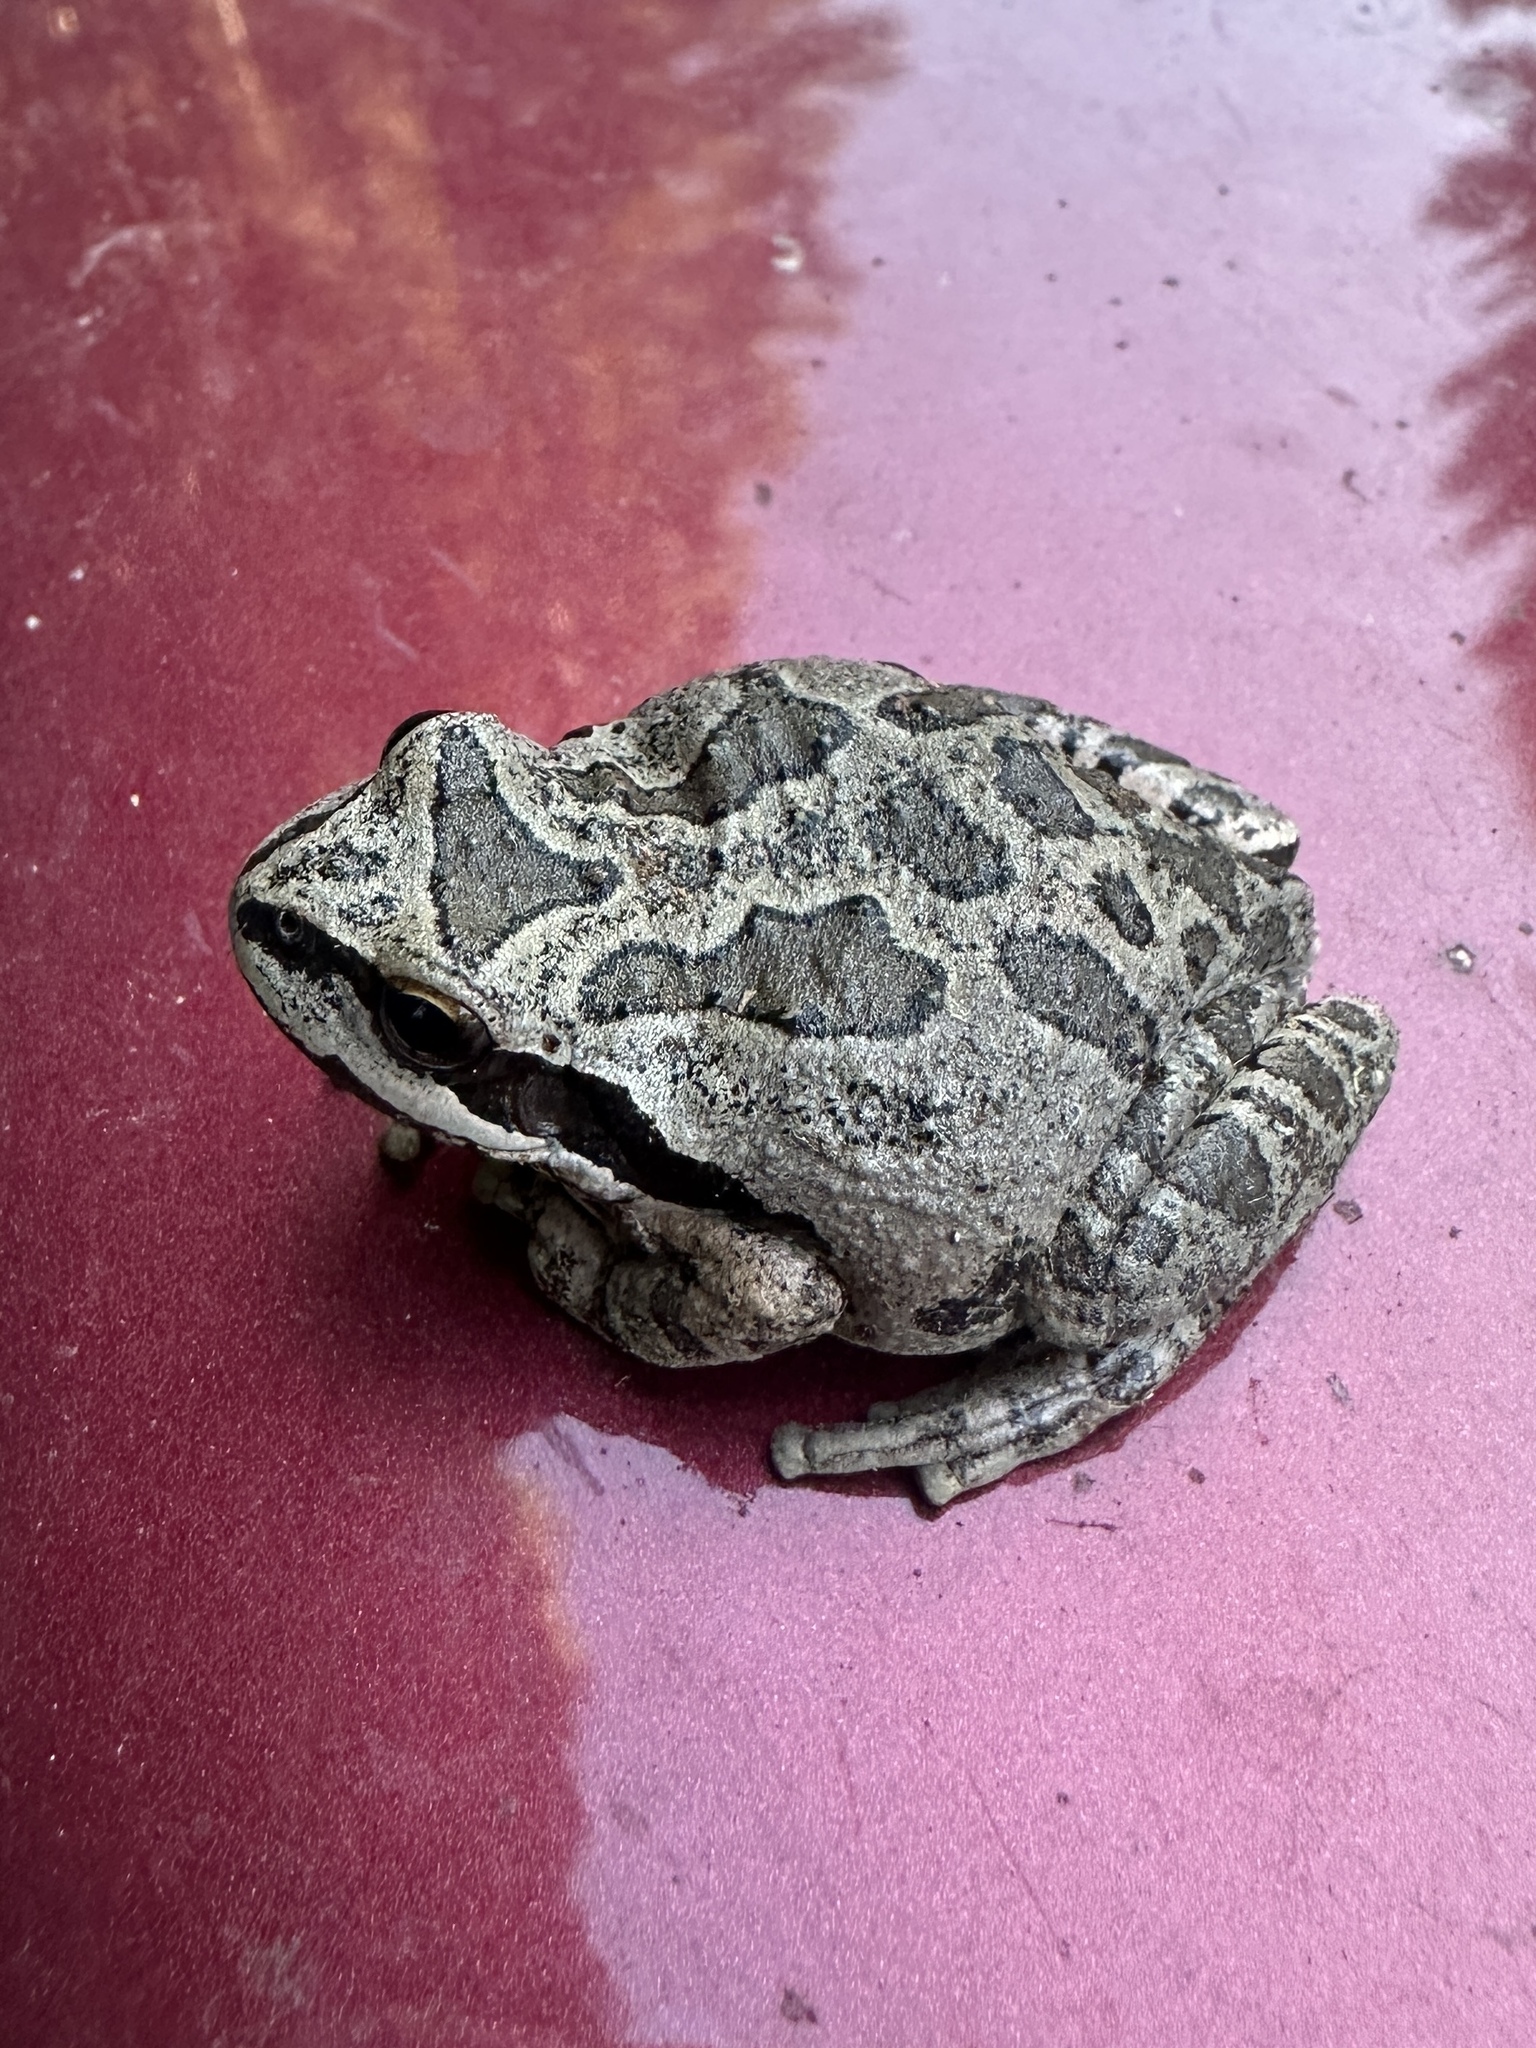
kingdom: Animalia
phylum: Chordata
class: Amphibia
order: Anura
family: Hylidae
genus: Pseudacris
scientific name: Pseudacris regilla
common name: Pacific chorus frog
